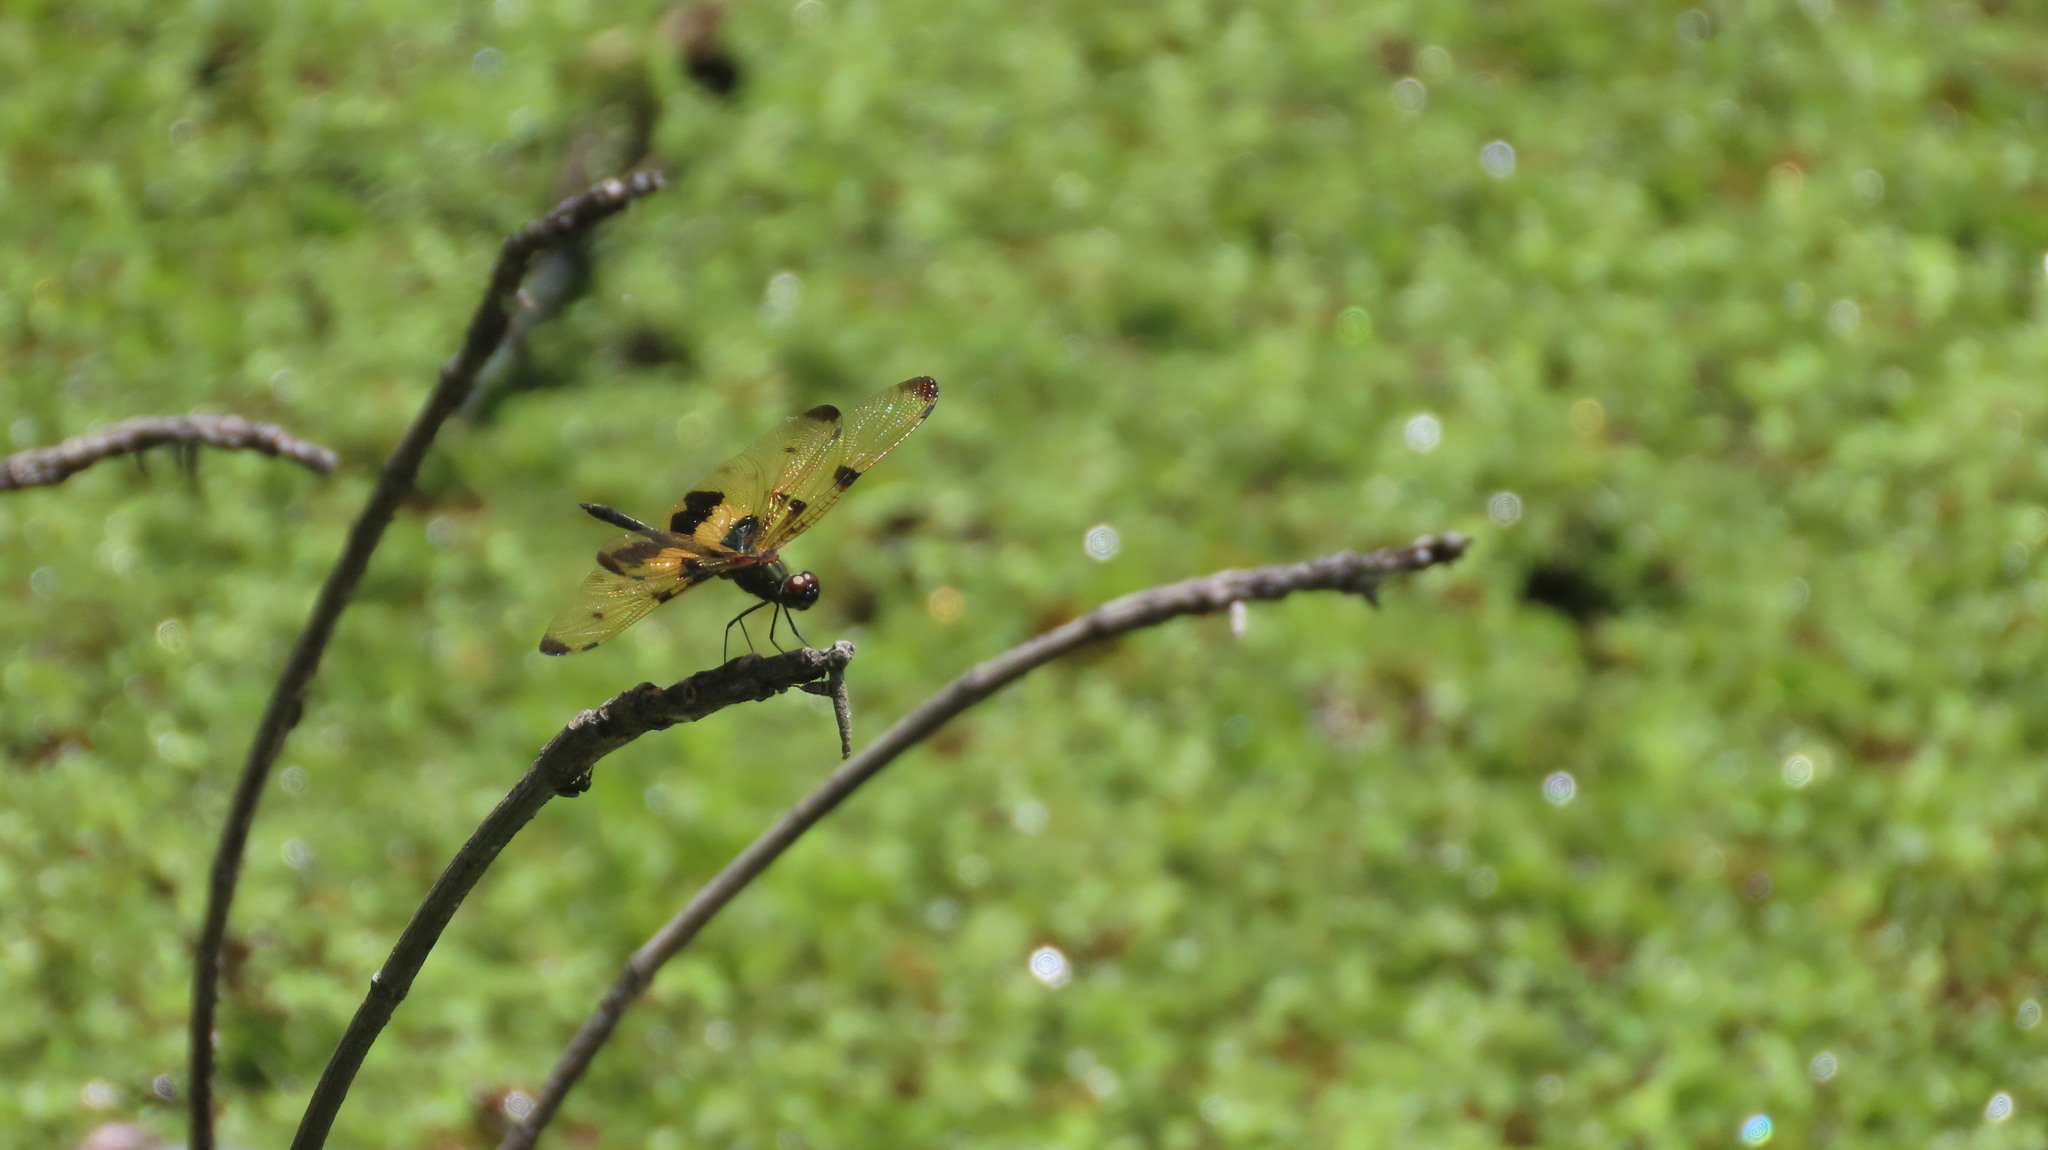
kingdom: Animalia
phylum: Arthropoda
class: Insecta
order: Odonata
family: Libellulidae
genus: Rhyothemis
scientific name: Rhyothemis variegata
